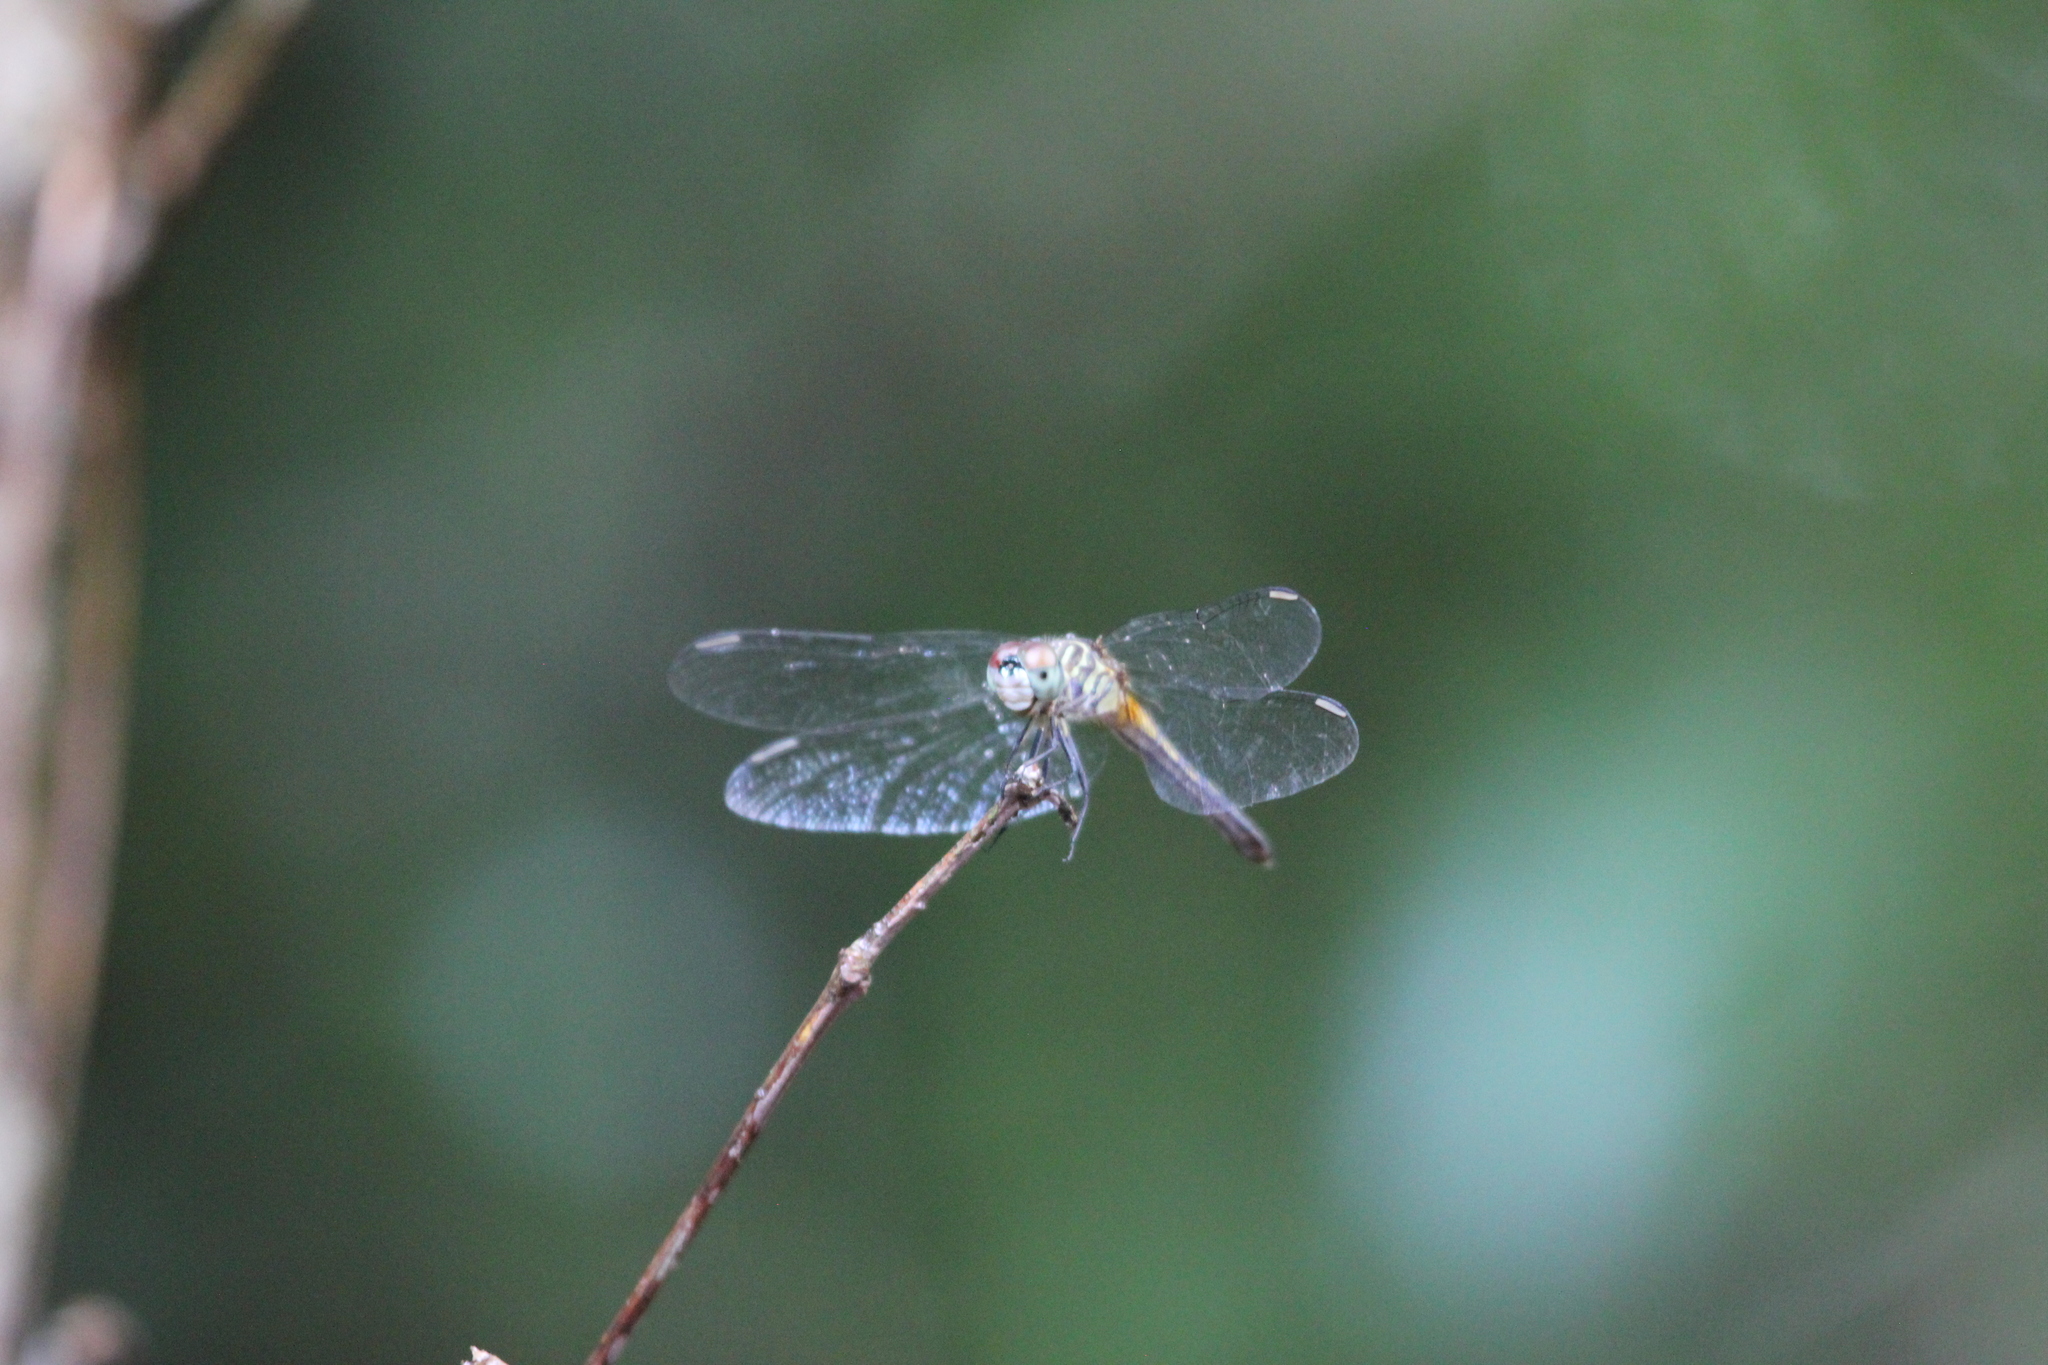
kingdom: Animalia
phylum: Arthropoda
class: Insecta
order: Odonata
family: Libellulidae
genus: Pachydiplax
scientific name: Pachydiplax longipennis
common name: Blue dasher
